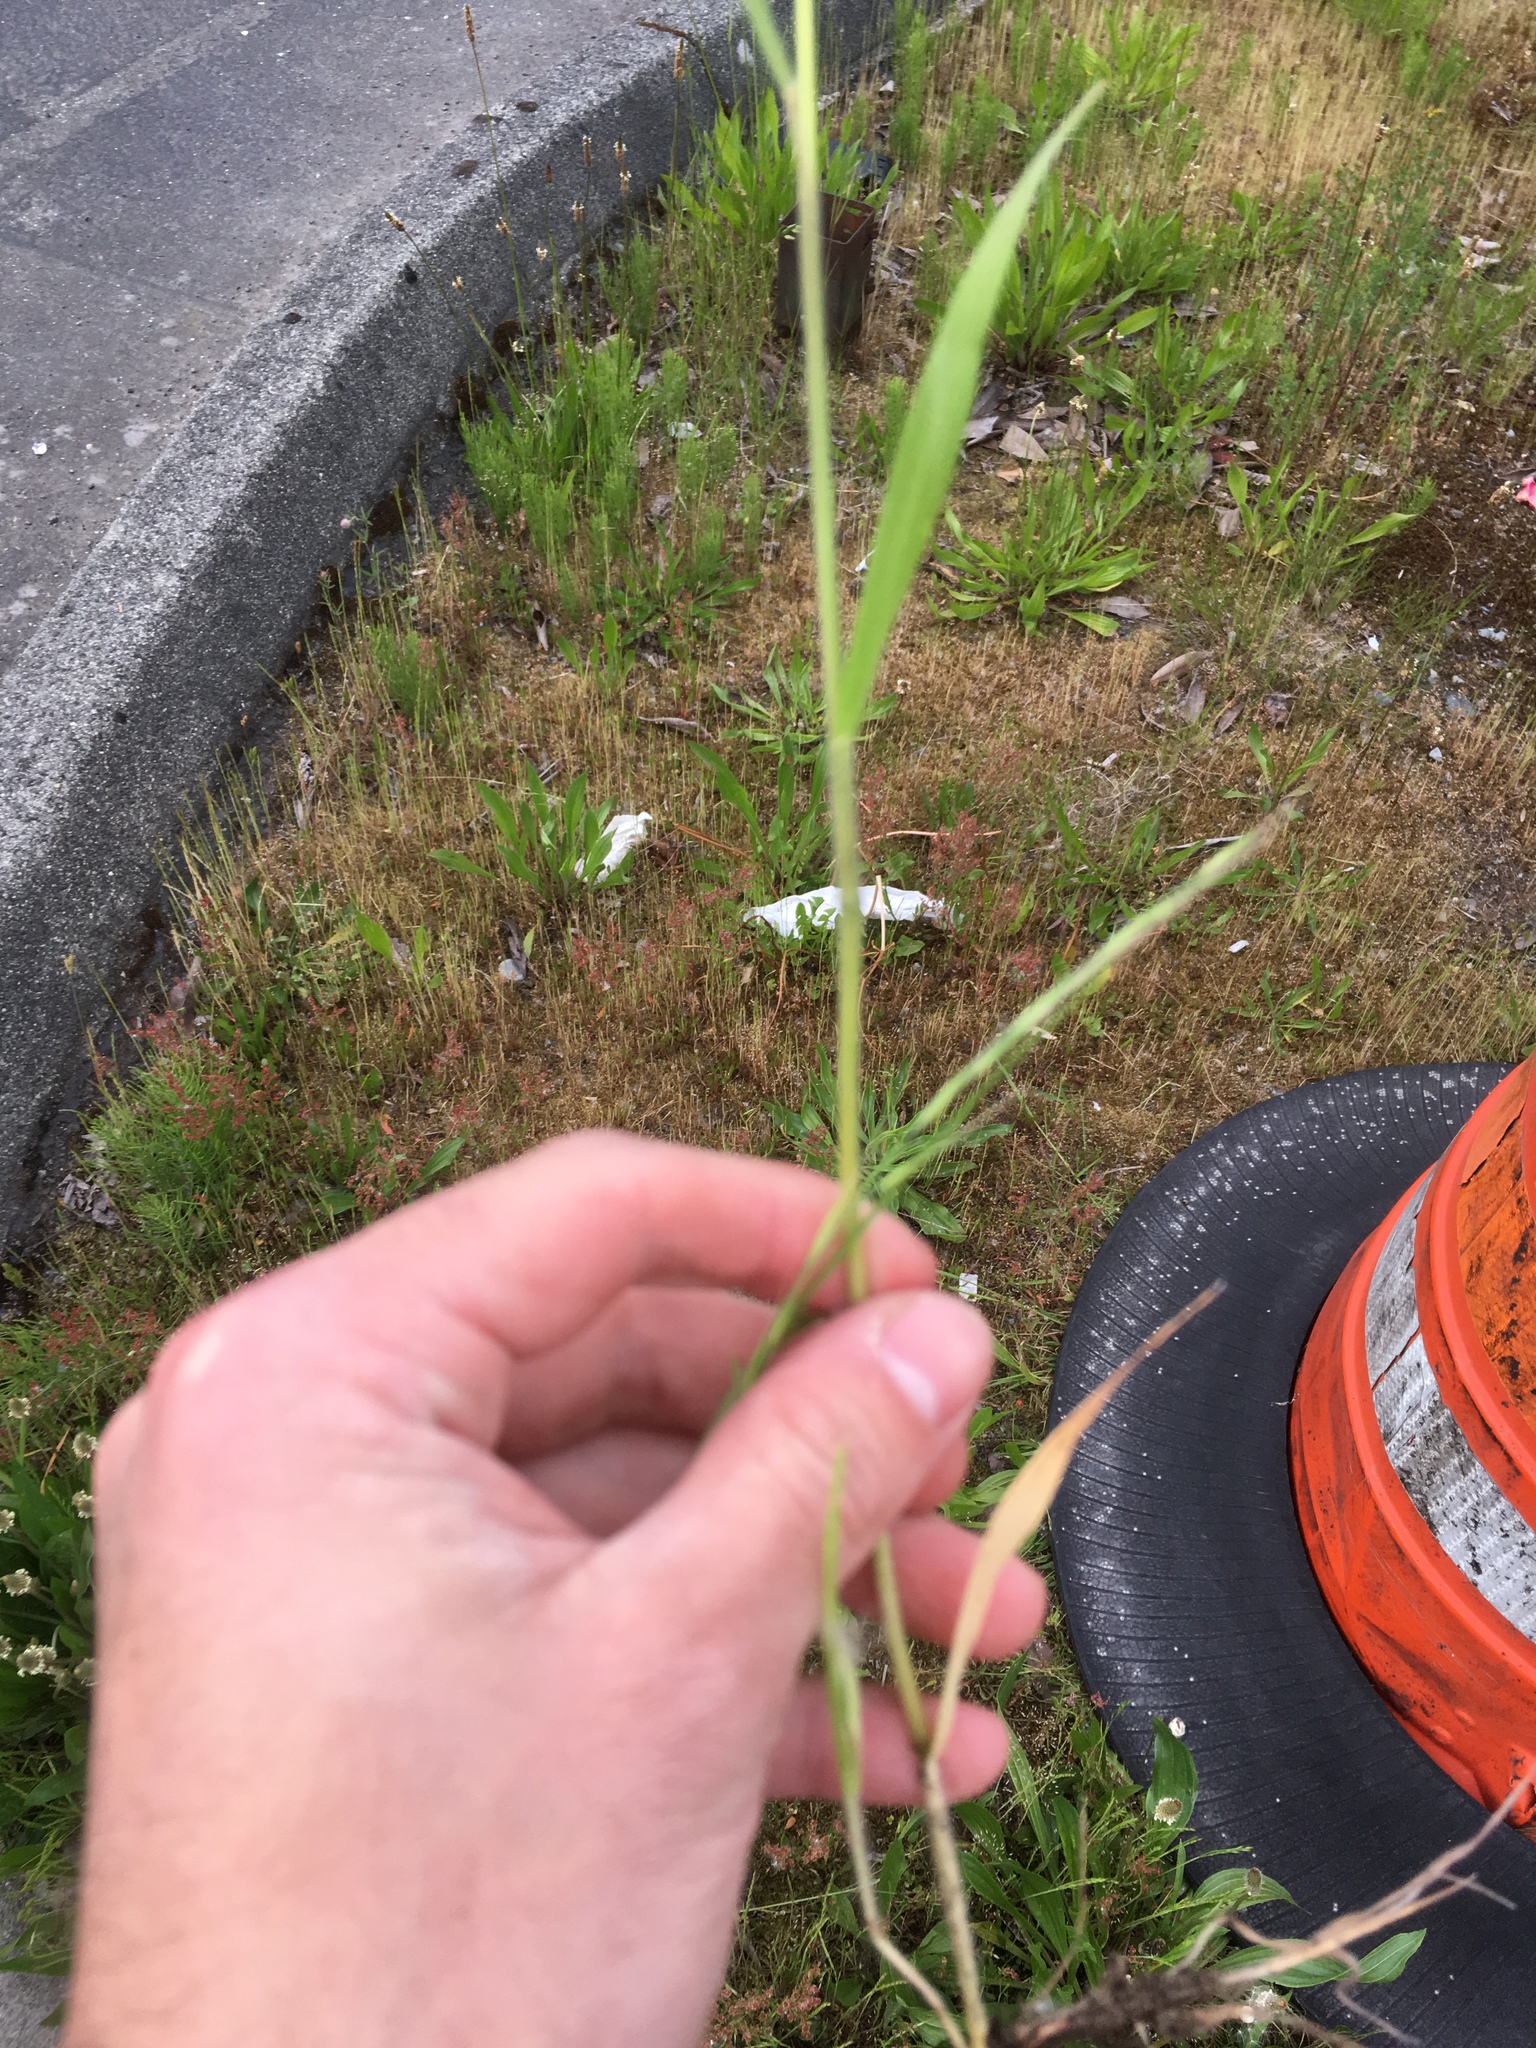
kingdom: Plantae
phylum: Tracheophyta
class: Liliopsida
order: Poales
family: Poaceae
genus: Bromus
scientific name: Bromus hordeaceus
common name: Soft brome
